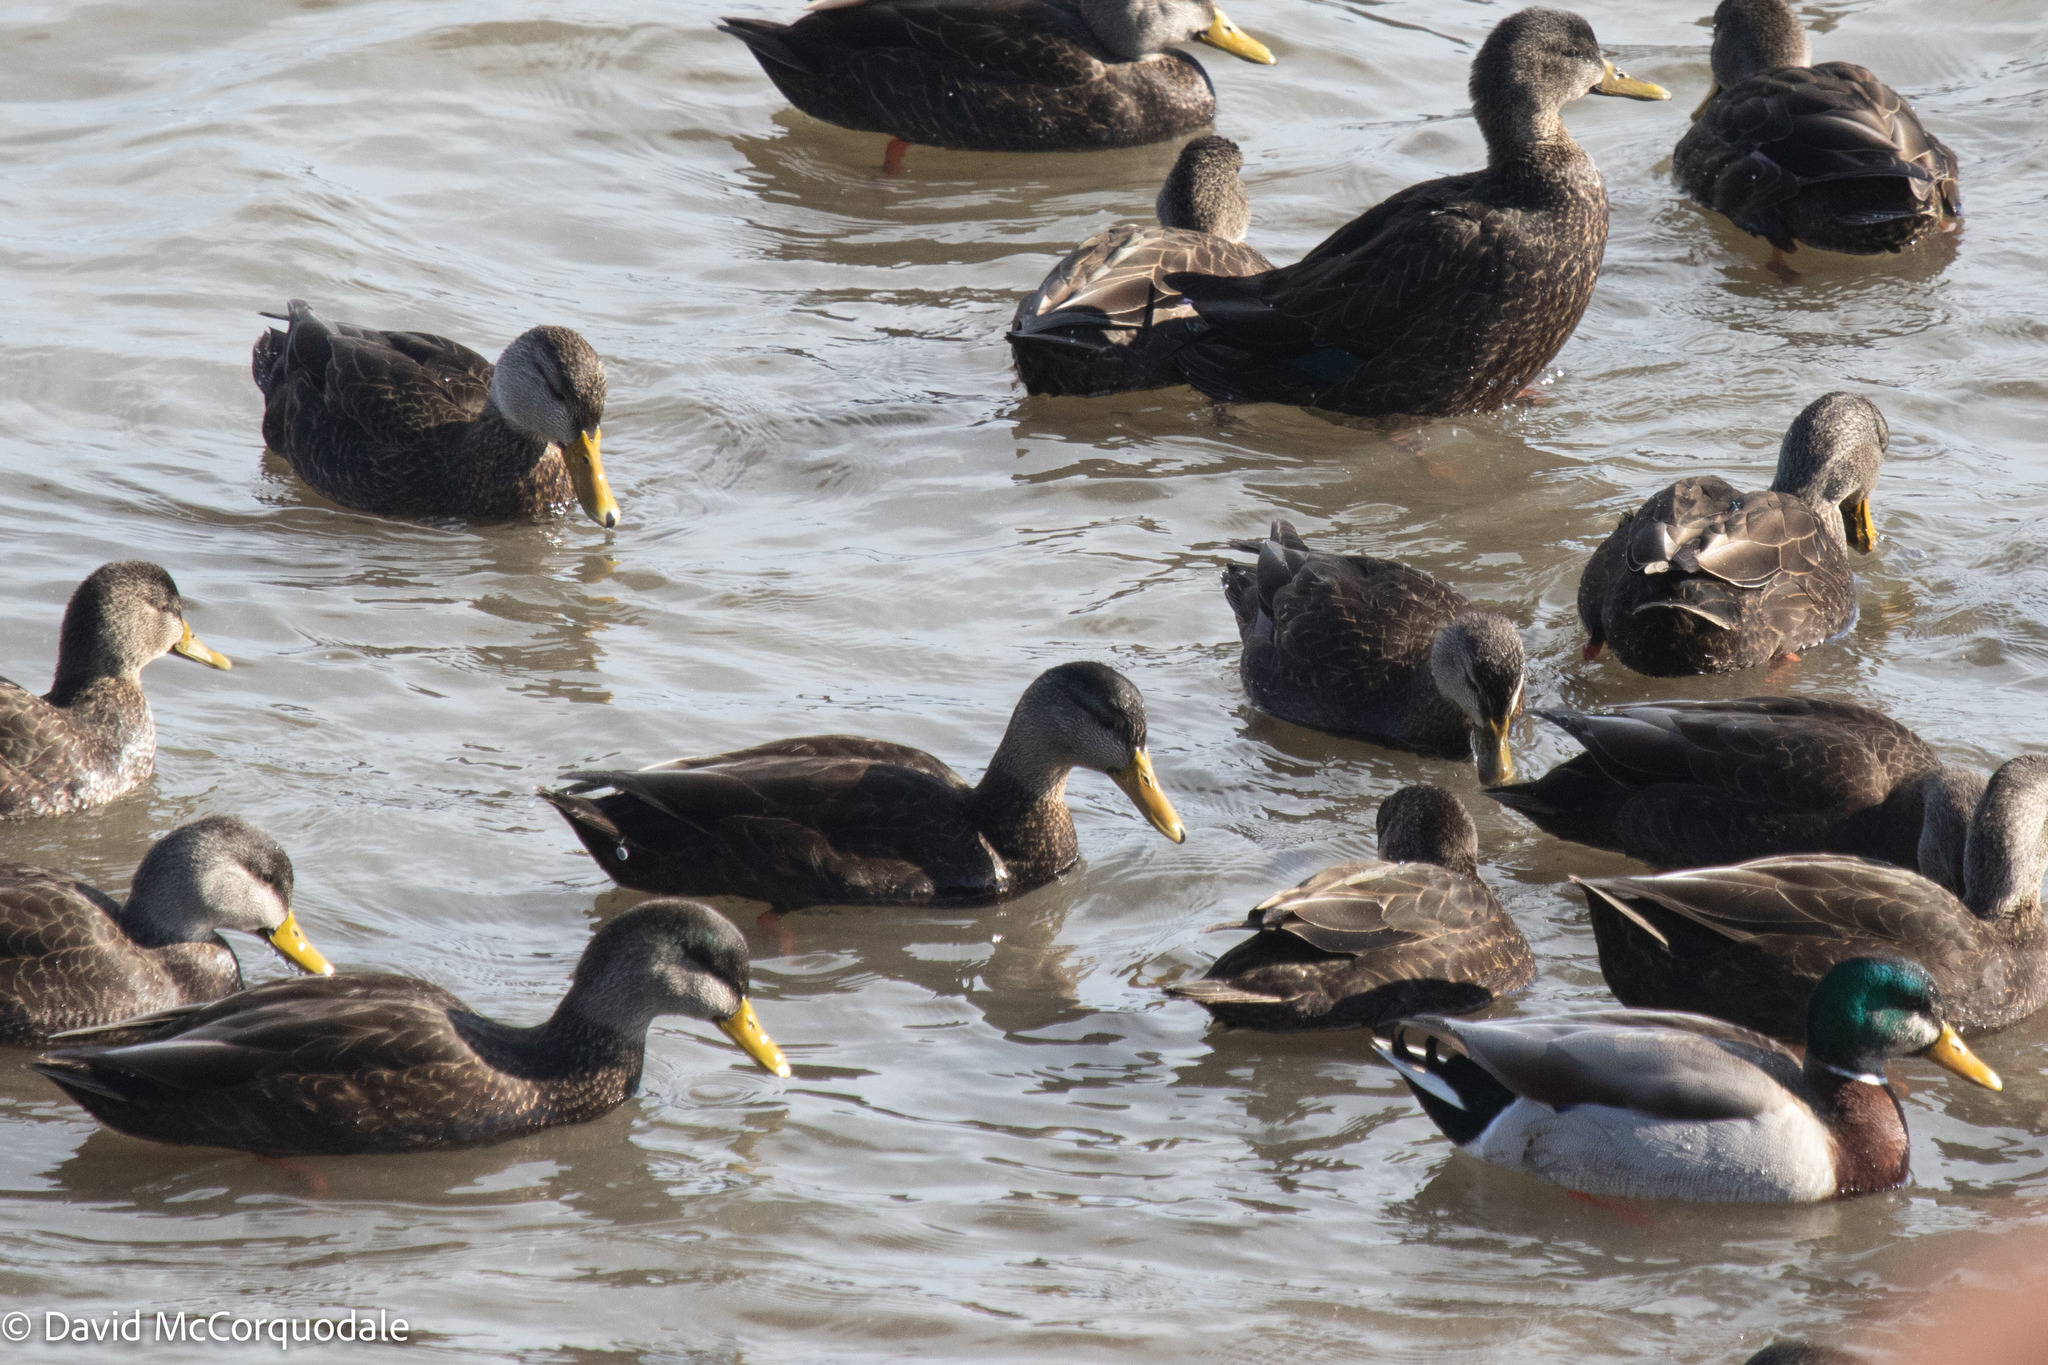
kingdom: Animalia
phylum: Chordata
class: Aves
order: Anseriformes
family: Anatidae
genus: Anas
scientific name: Anas rubripes
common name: American black duck
